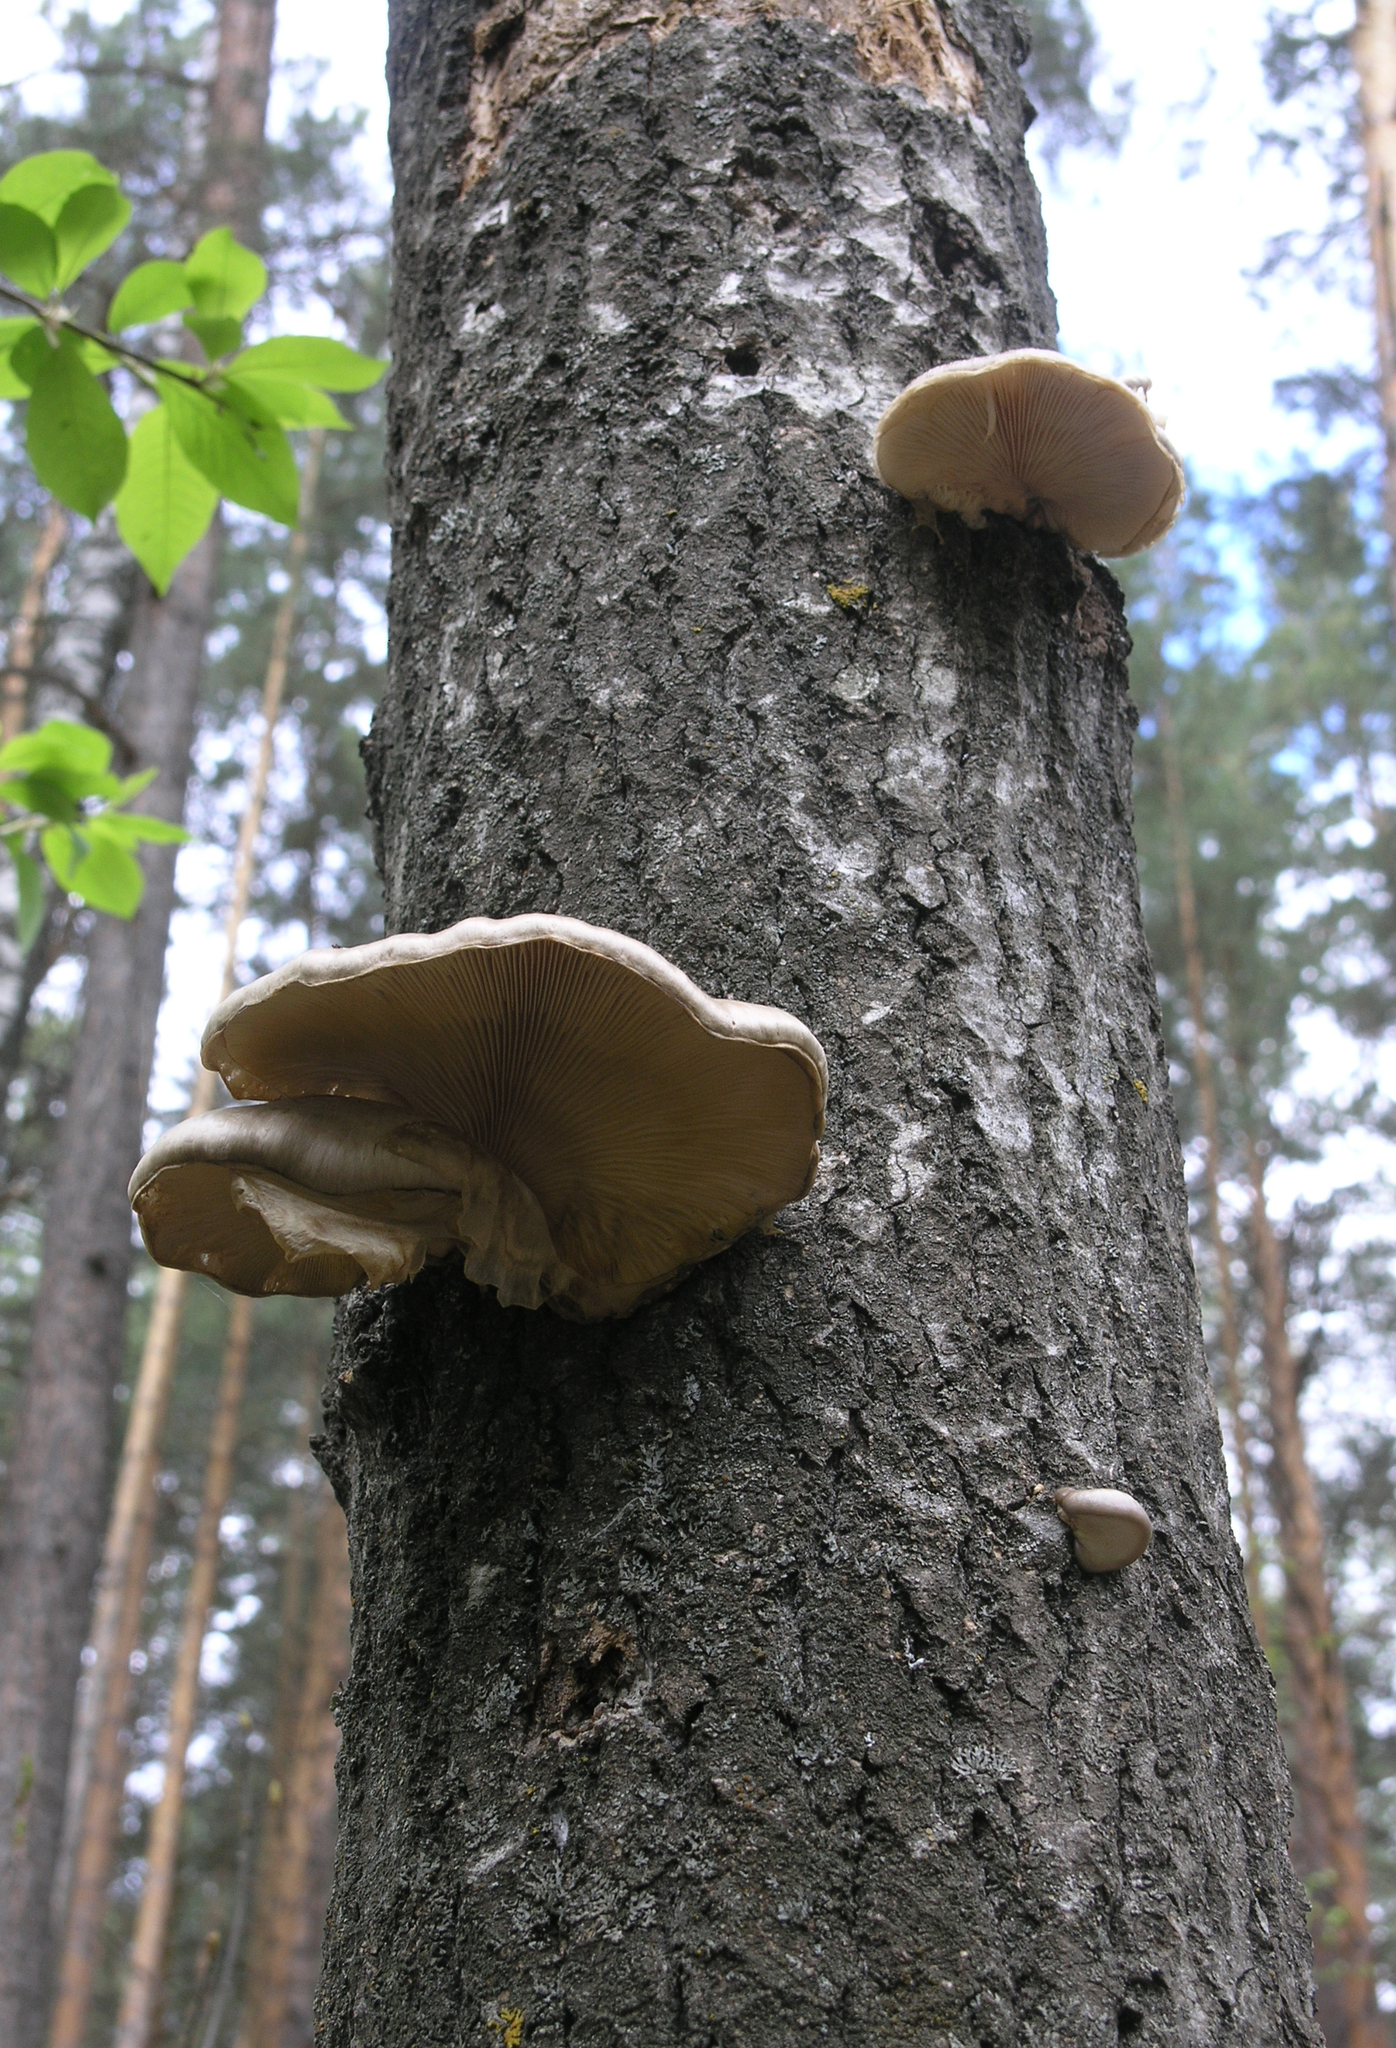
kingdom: Fungi
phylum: Basidiomycota
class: Agaricomycetes
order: Agaricales
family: Pleurotaceae
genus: Pleurotus
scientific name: Pleurotus calyptratus
